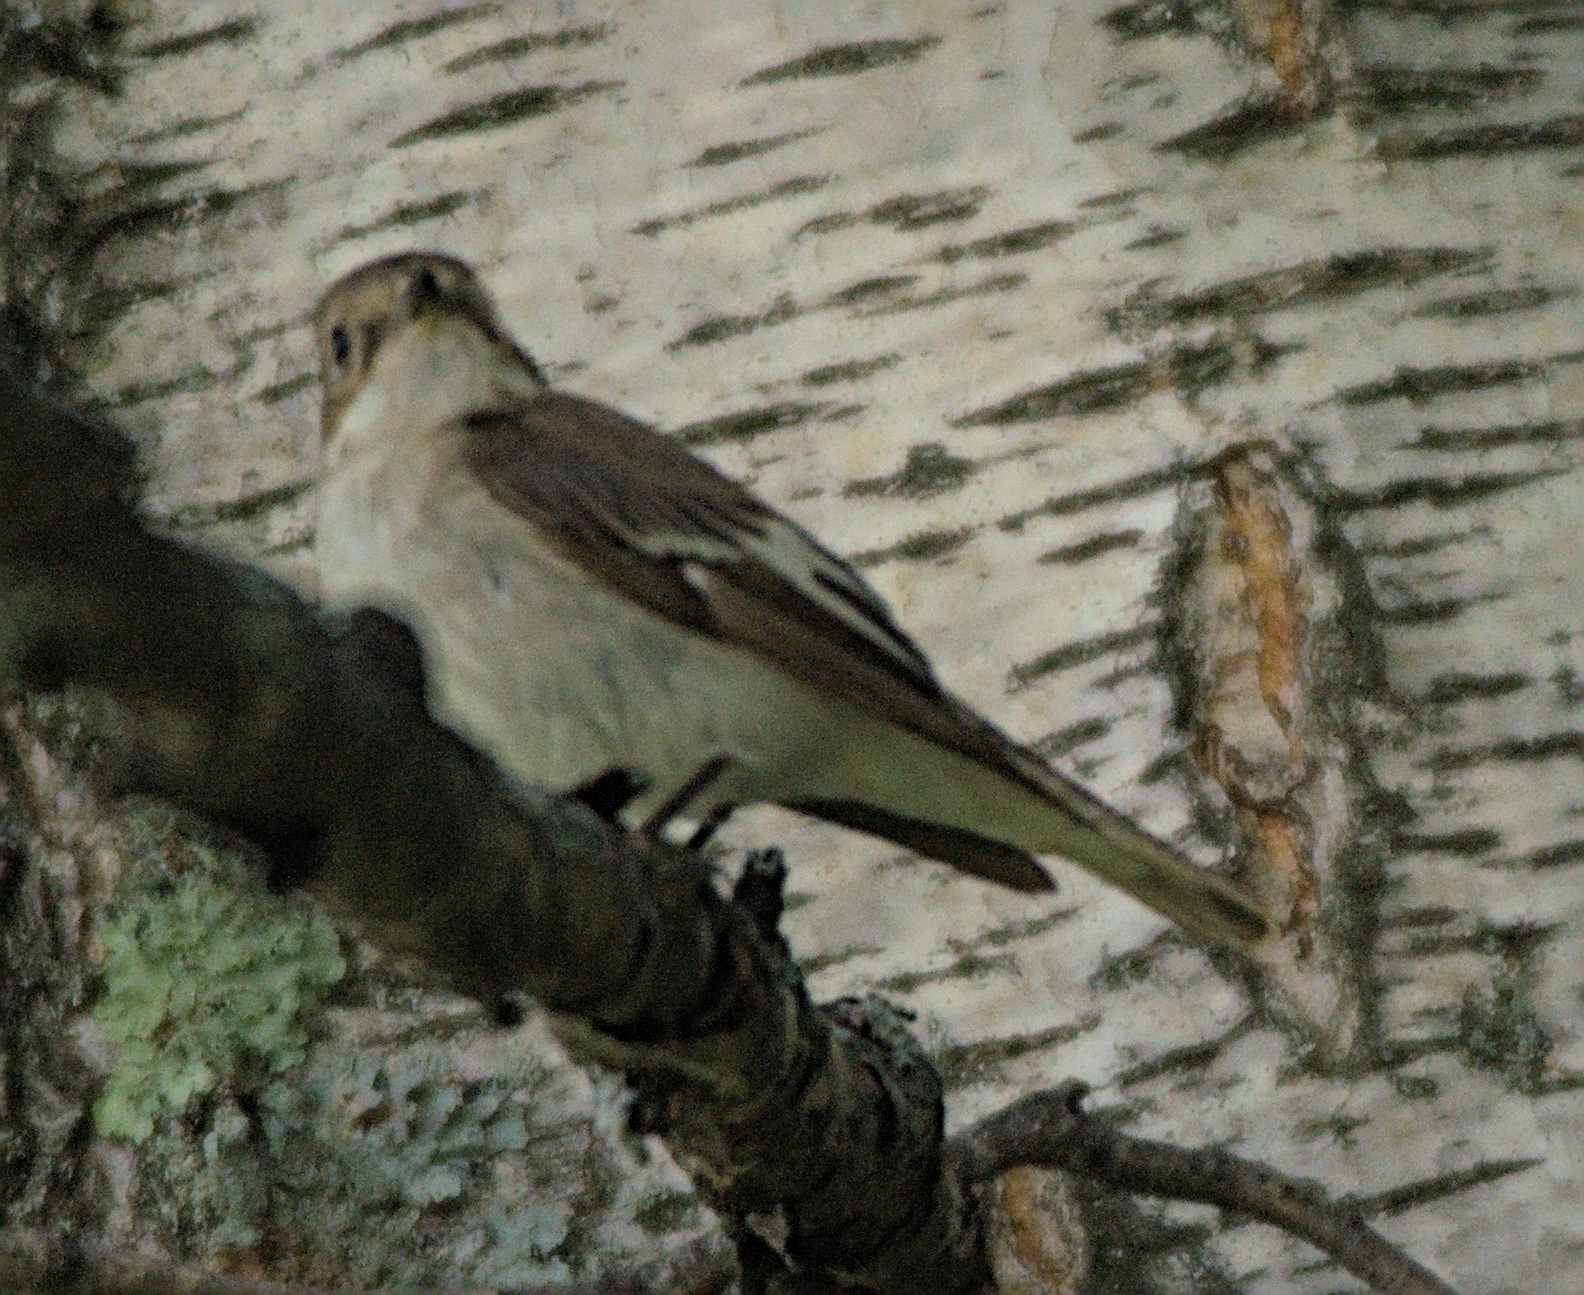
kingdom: Animalia
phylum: Chordata
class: Aves
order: Passeriformes
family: Muscicapidae
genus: Ficedula
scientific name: Ficedula hypoleuca
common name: European pied flycatcher
